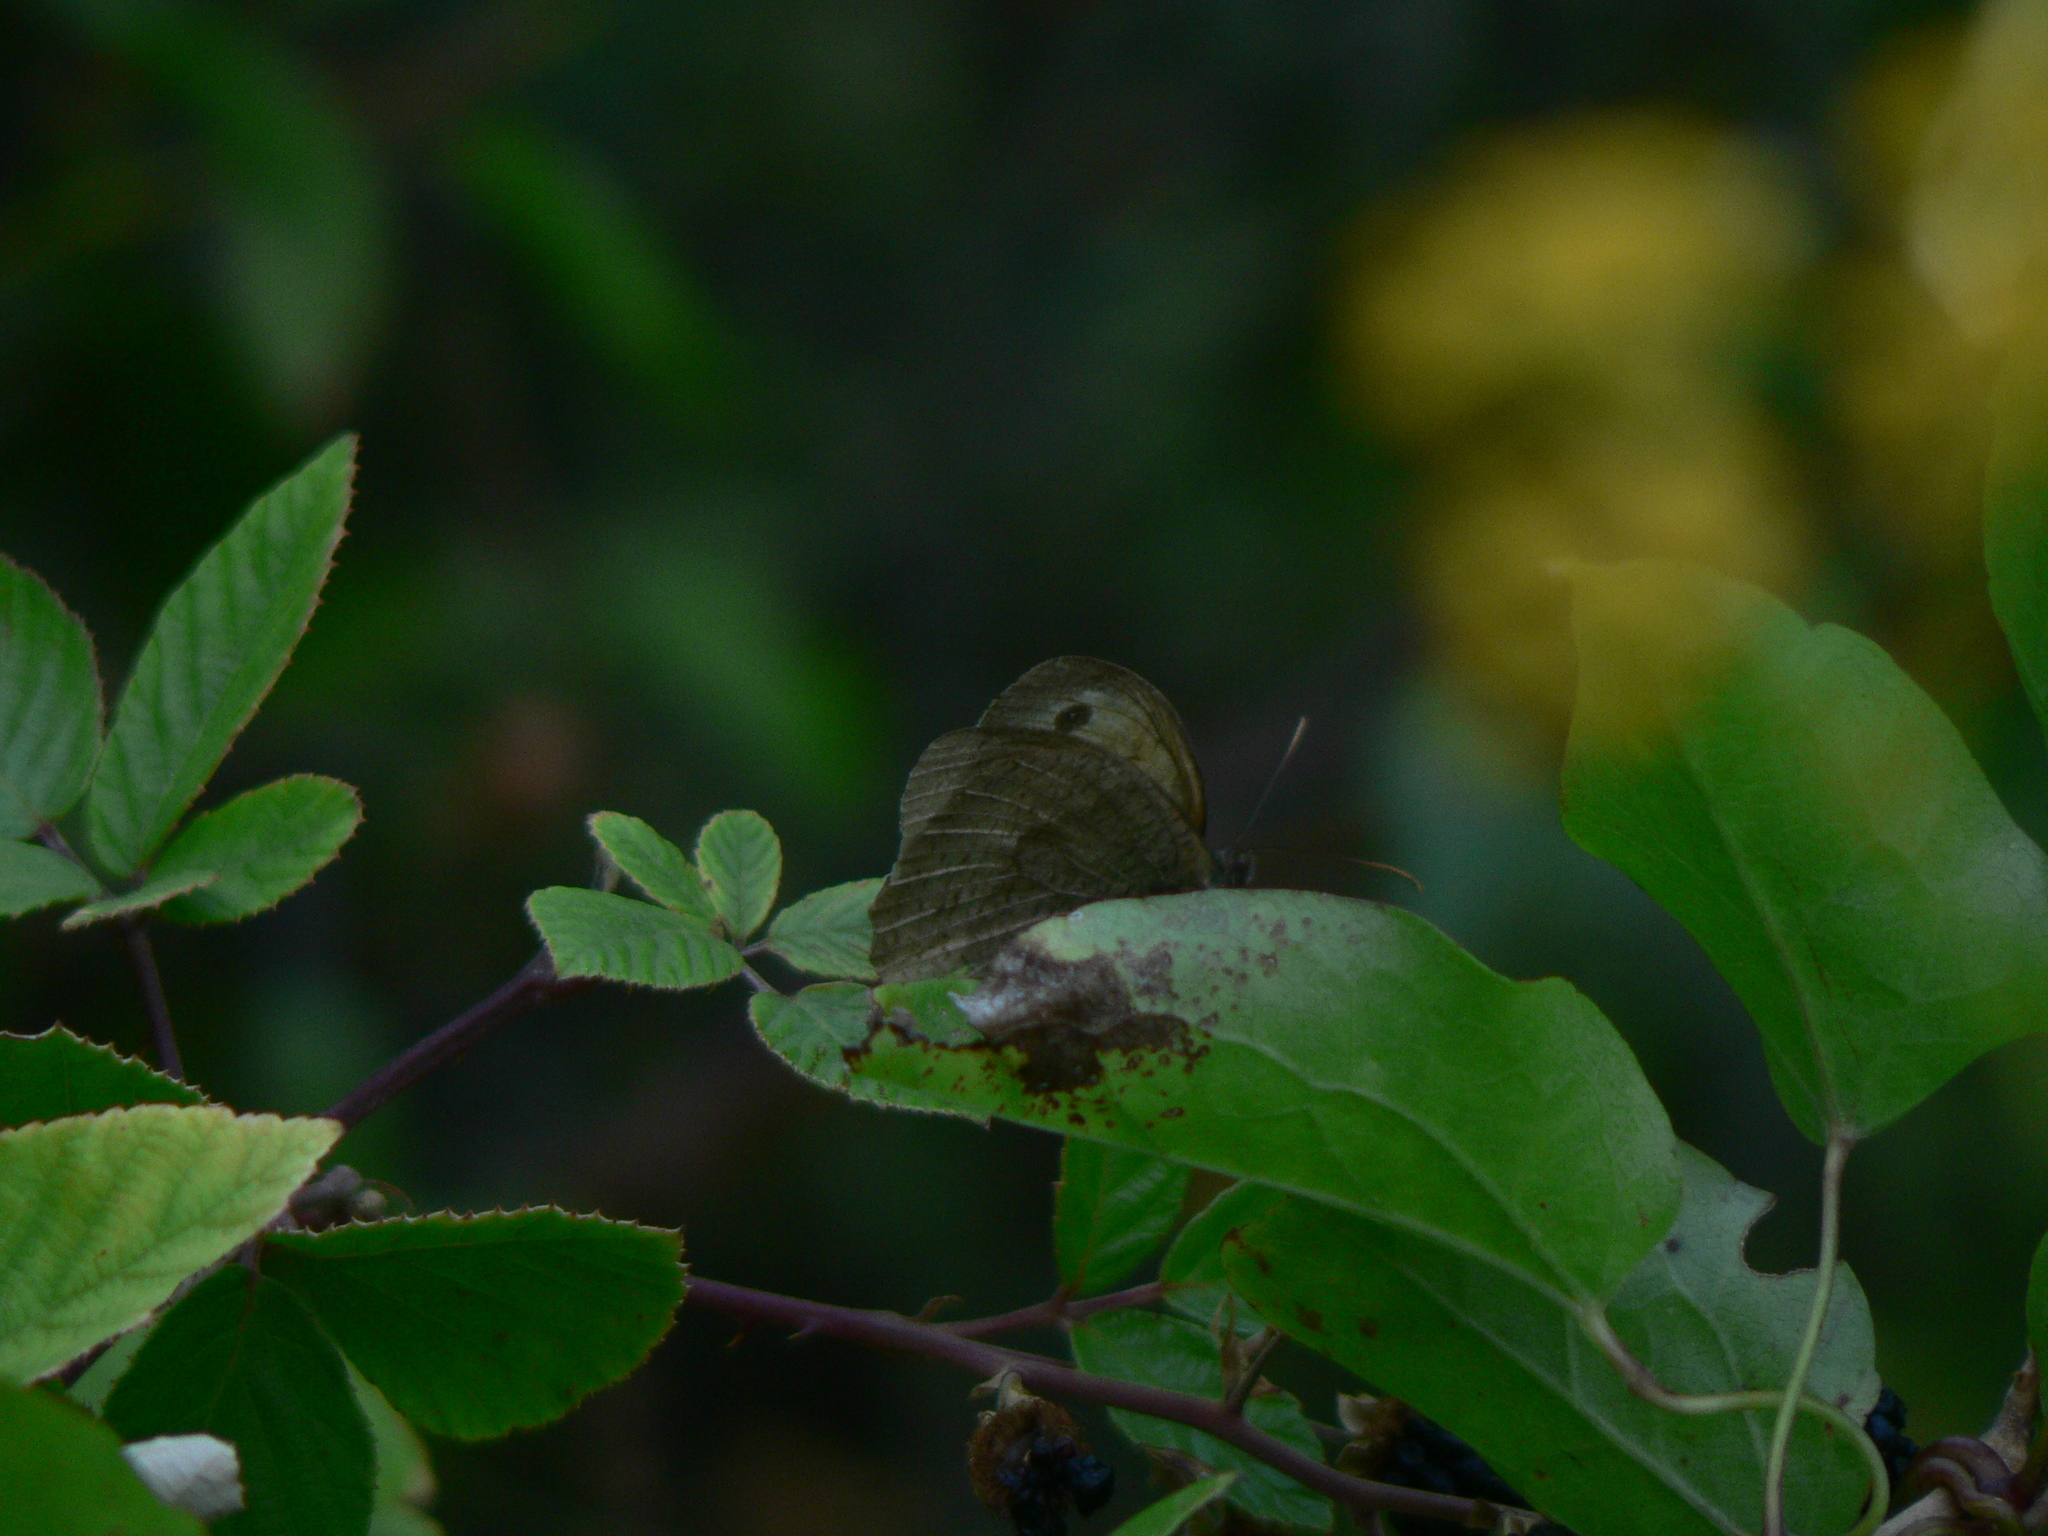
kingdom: Animalia
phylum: Arthropoda
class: Insecta
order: Lepidoptera
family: Nymphalidae
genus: Maniola
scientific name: Maniola jurtina
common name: Meadow brown
